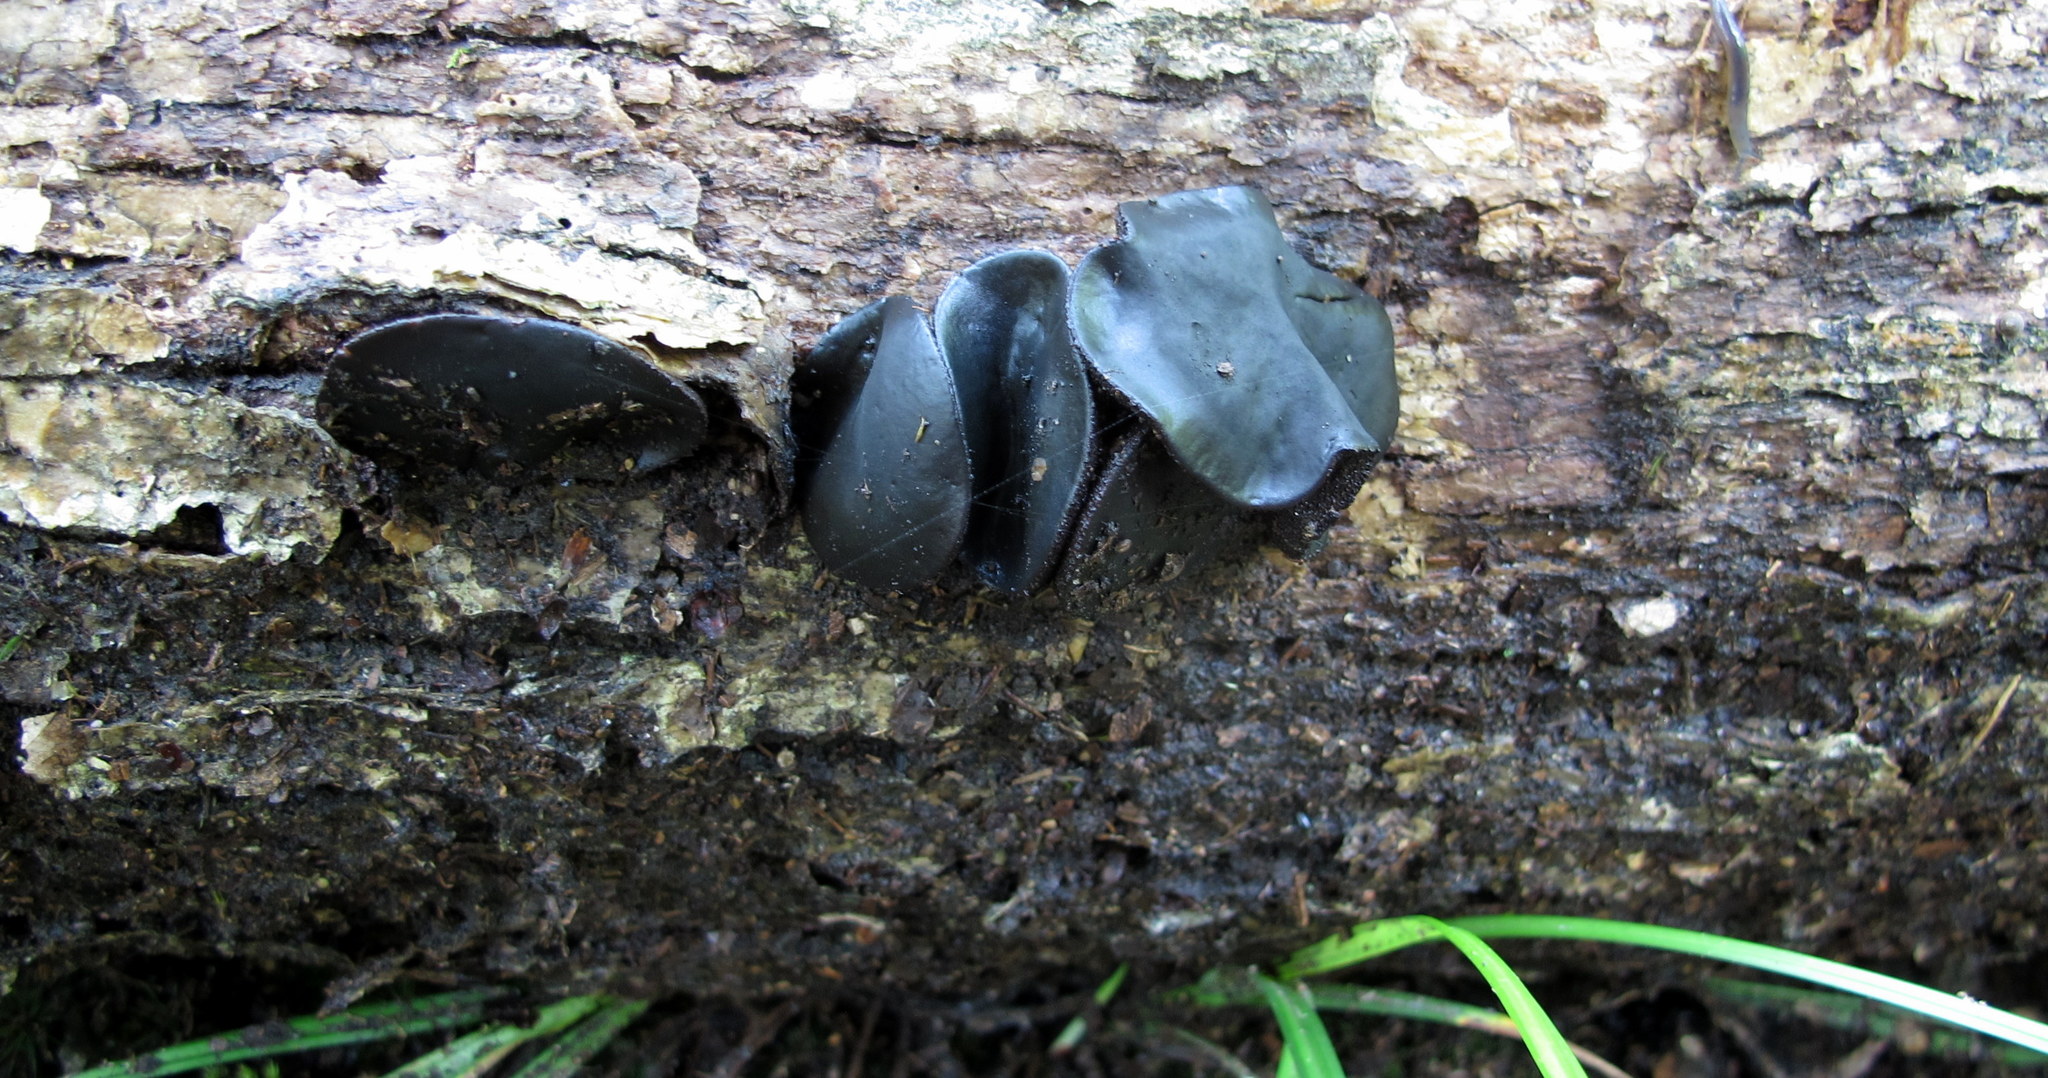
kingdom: Fungi
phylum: Ascomycota
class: Leotiomycetes
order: Phacidiales
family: Phacidiaceae
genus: Bulgaria
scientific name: Bulgaria inquinans
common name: Black bulgar
